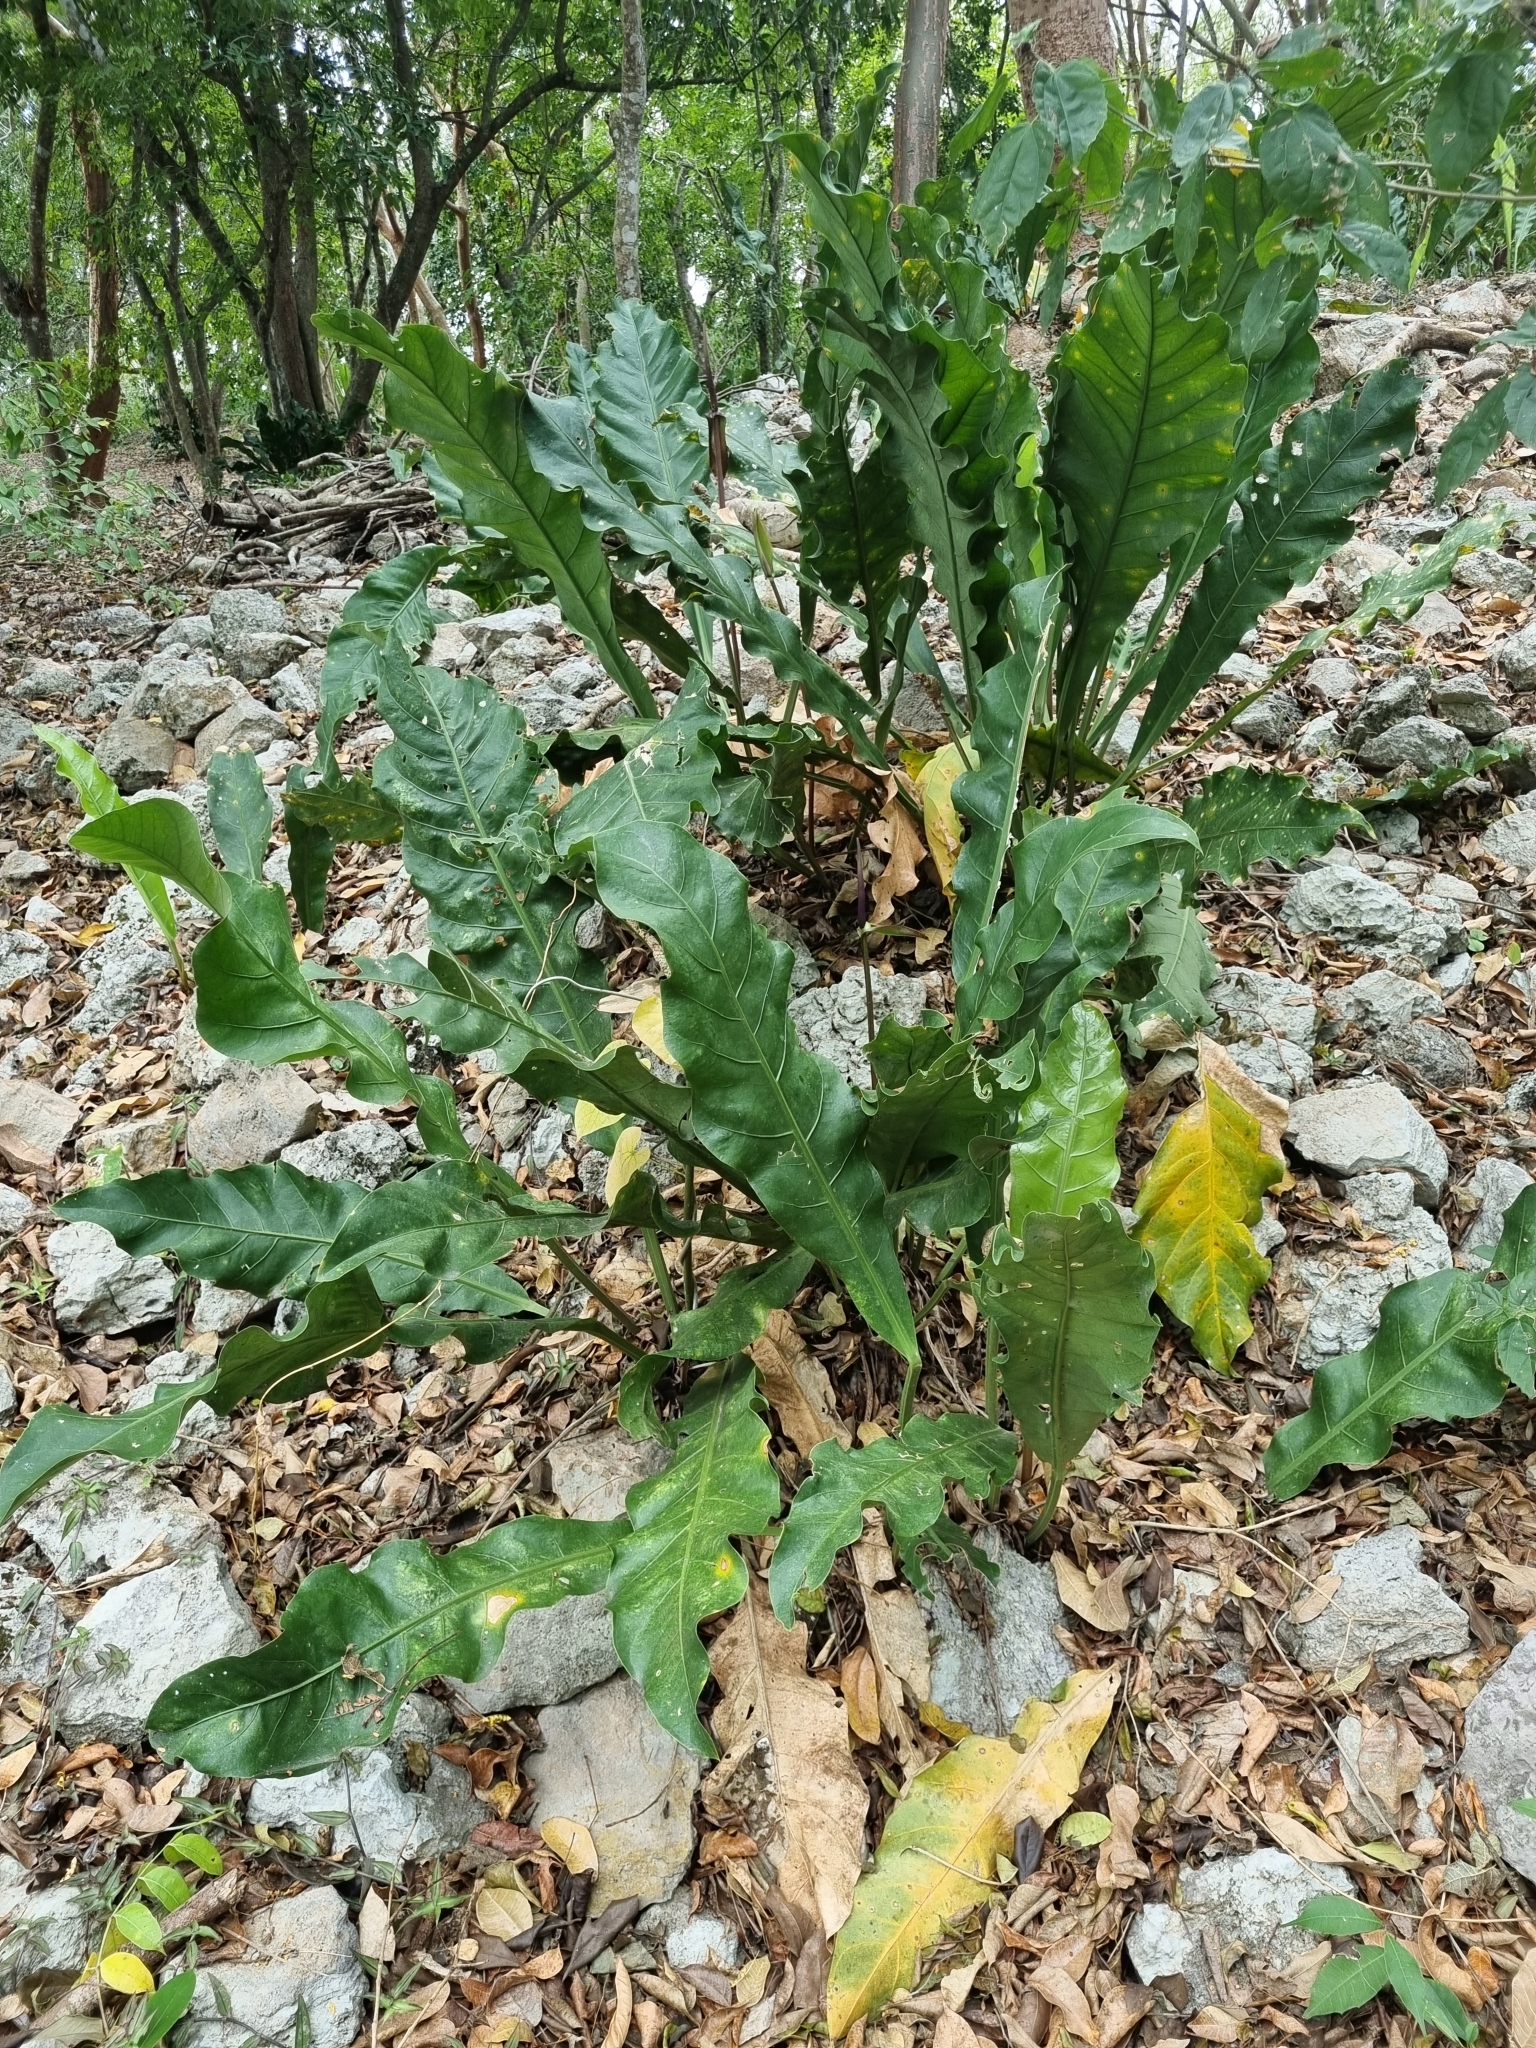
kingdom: Plantae
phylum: Tracheophyta
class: Liliopsida
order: Alismatales
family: Araceae
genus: Anthurium
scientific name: Anthurium schlechtendalii
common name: Laceleaf
